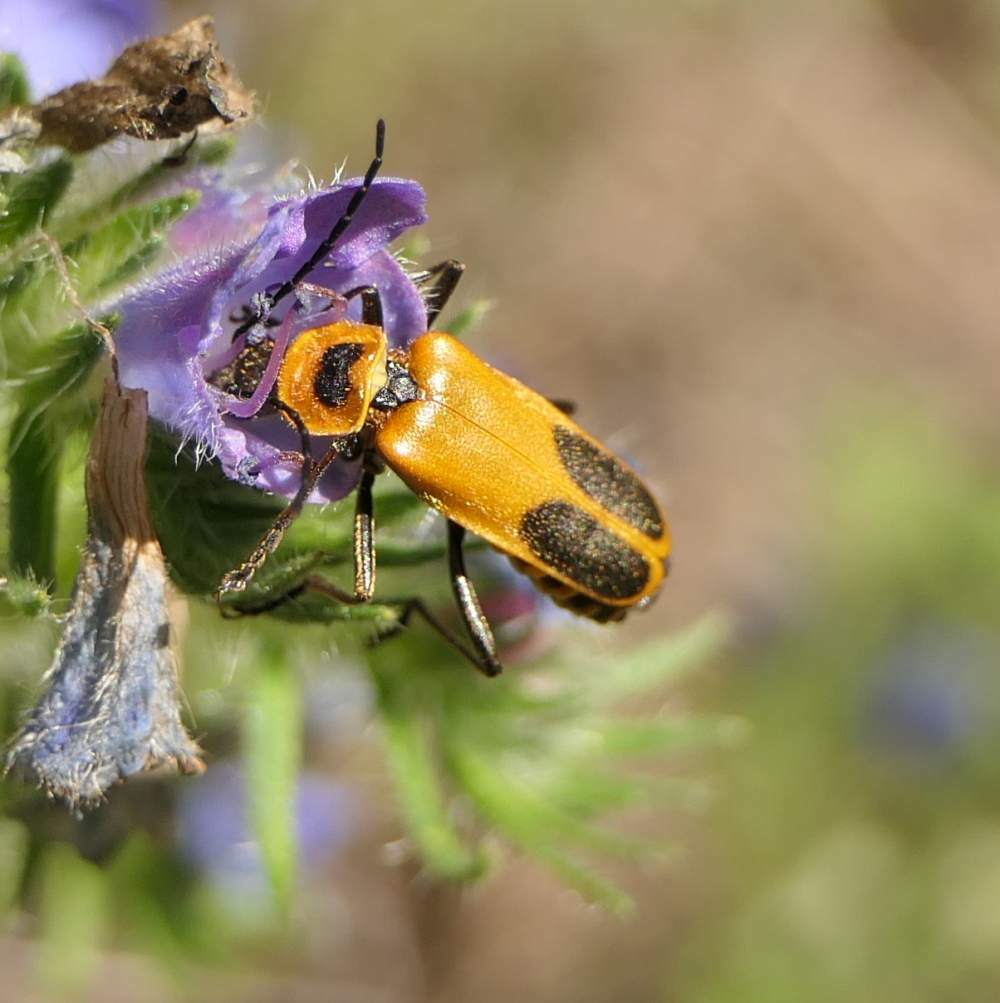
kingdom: Animalia
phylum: Arthropoda
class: Insecta
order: Coleoptera
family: Cantharidae
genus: Chauliognathus
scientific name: Chauliognathus pensylvanicus
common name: Goldenrod soldier beetle
